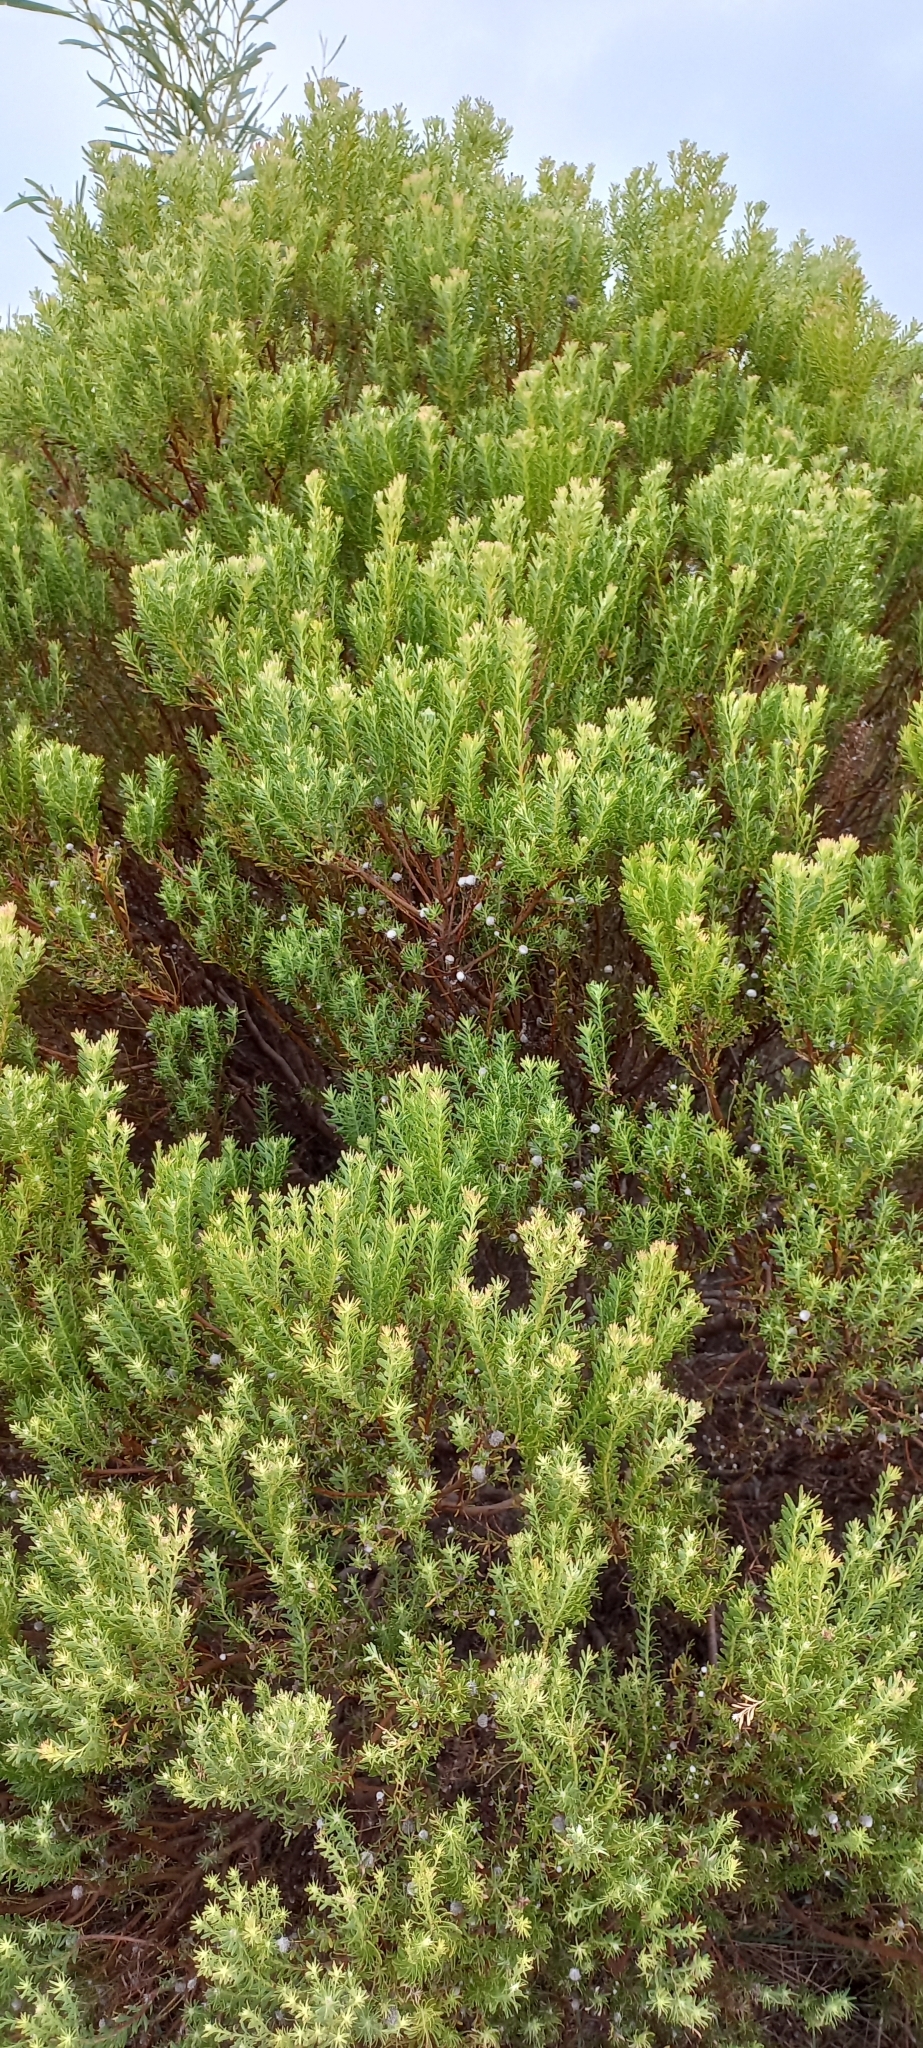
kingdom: Plantae
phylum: Tracheophyta
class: Magnoliopsida
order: Proteales
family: Proteaceae
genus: Leucadendron
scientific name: Leucadendron linifolium
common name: Line-leaf conebush
